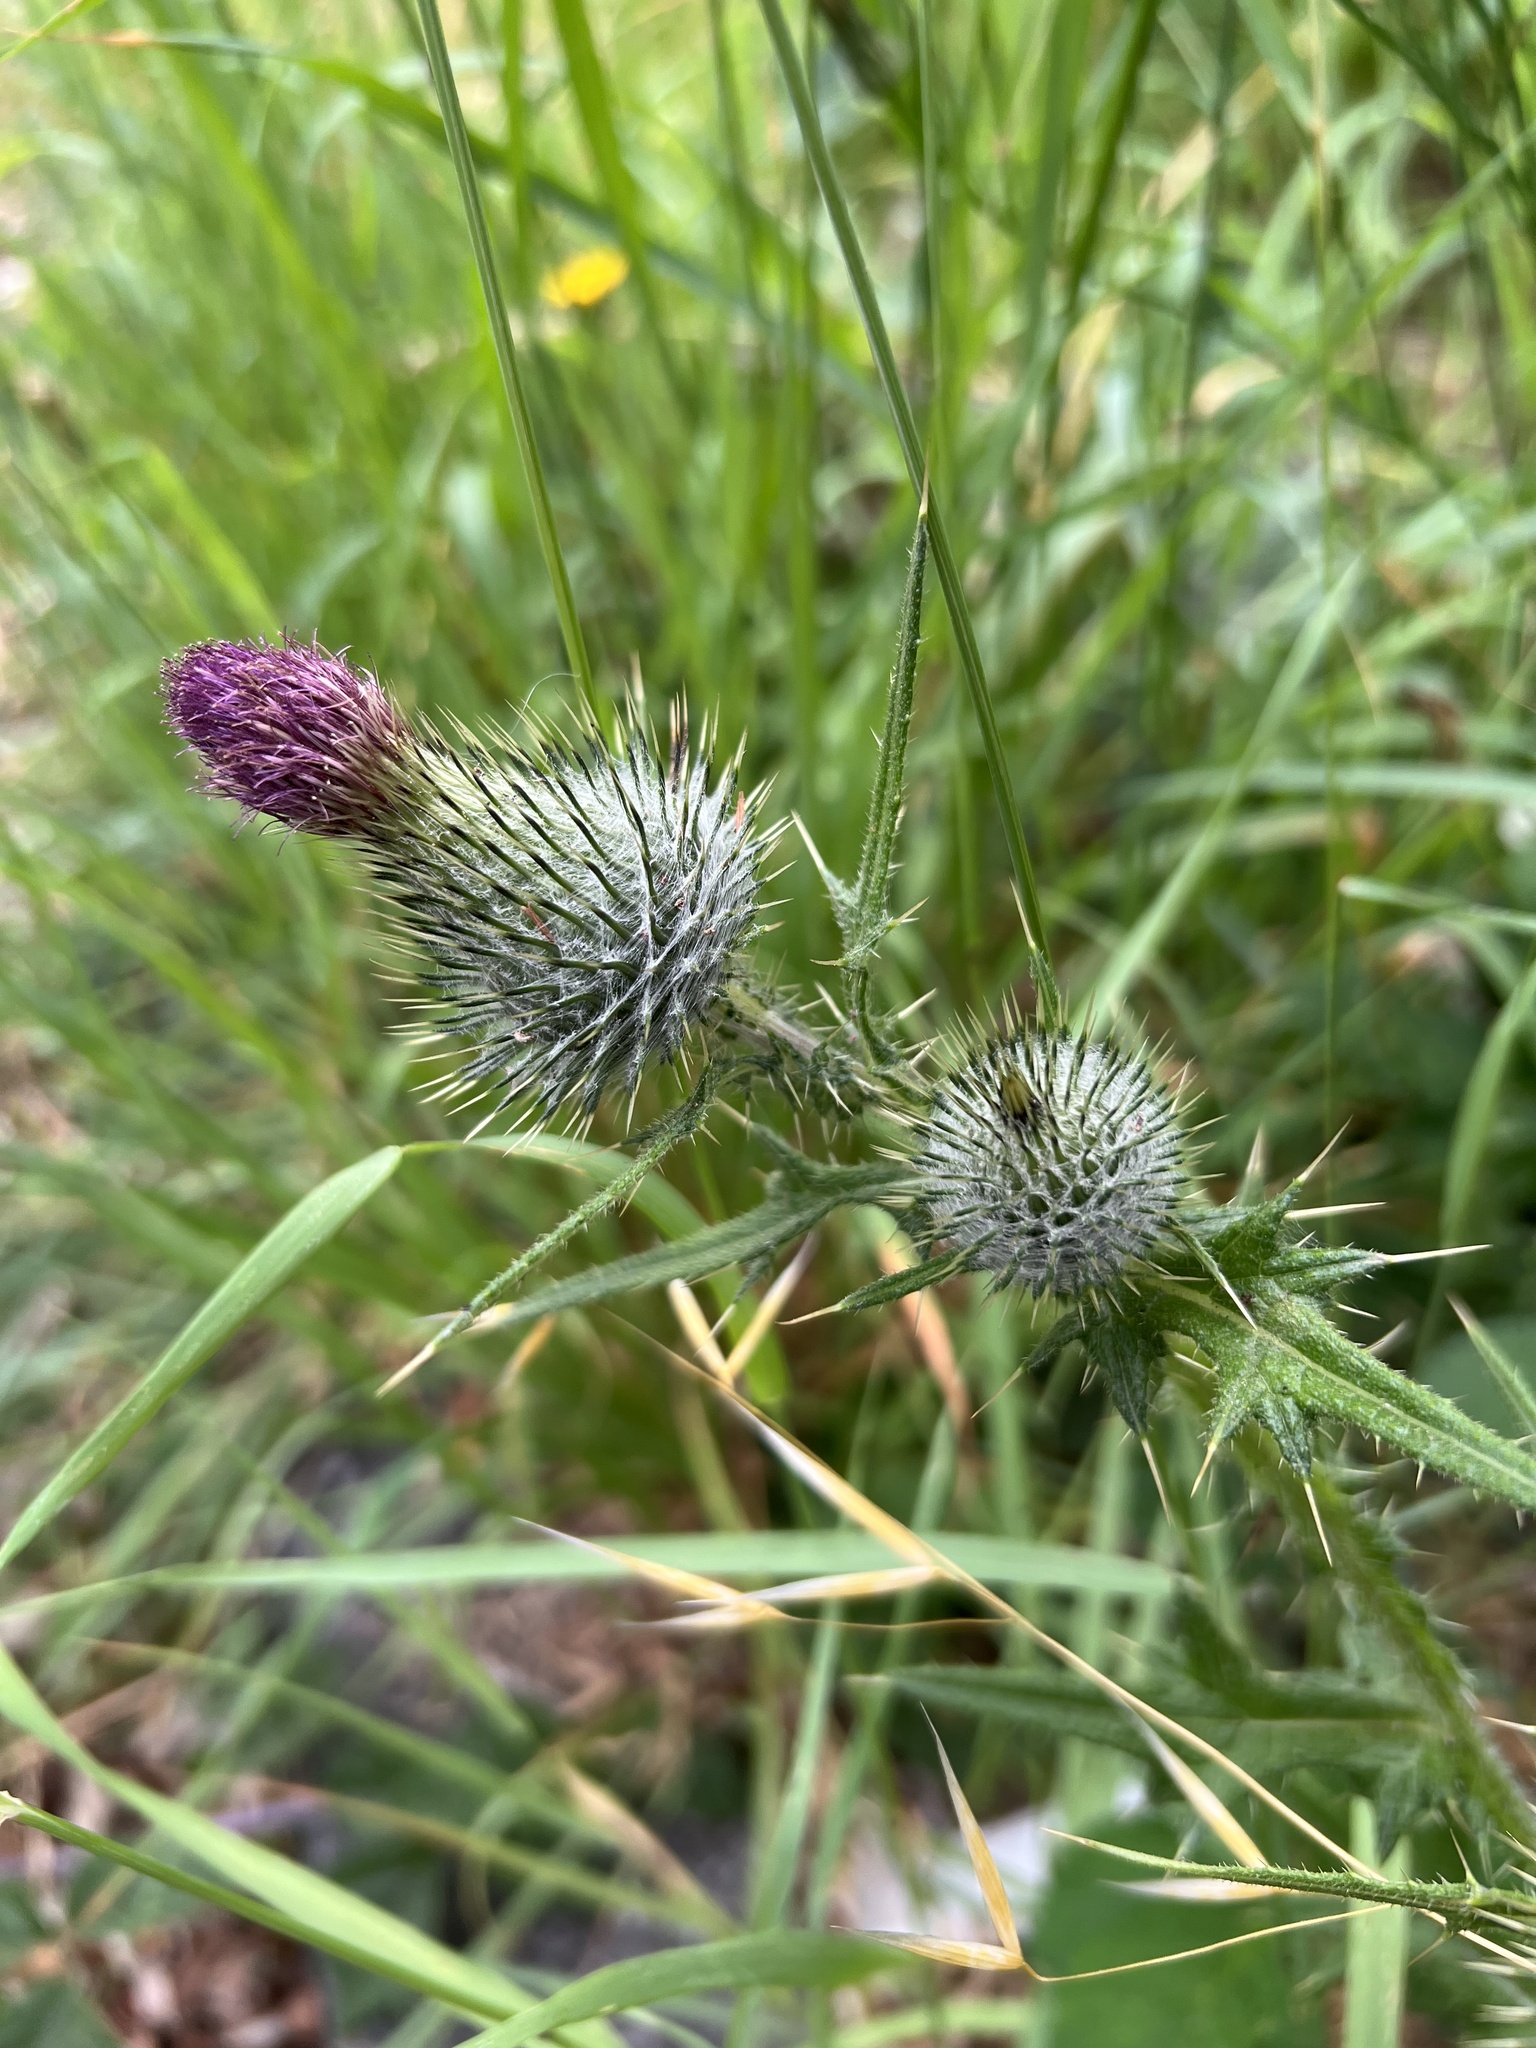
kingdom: Plantae
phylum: Tracheophyta
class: Magnoliopsida
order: Asterales
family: Asteraceae
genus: Cirsium
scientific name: Cirsium vulgare
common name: Bull thistle
